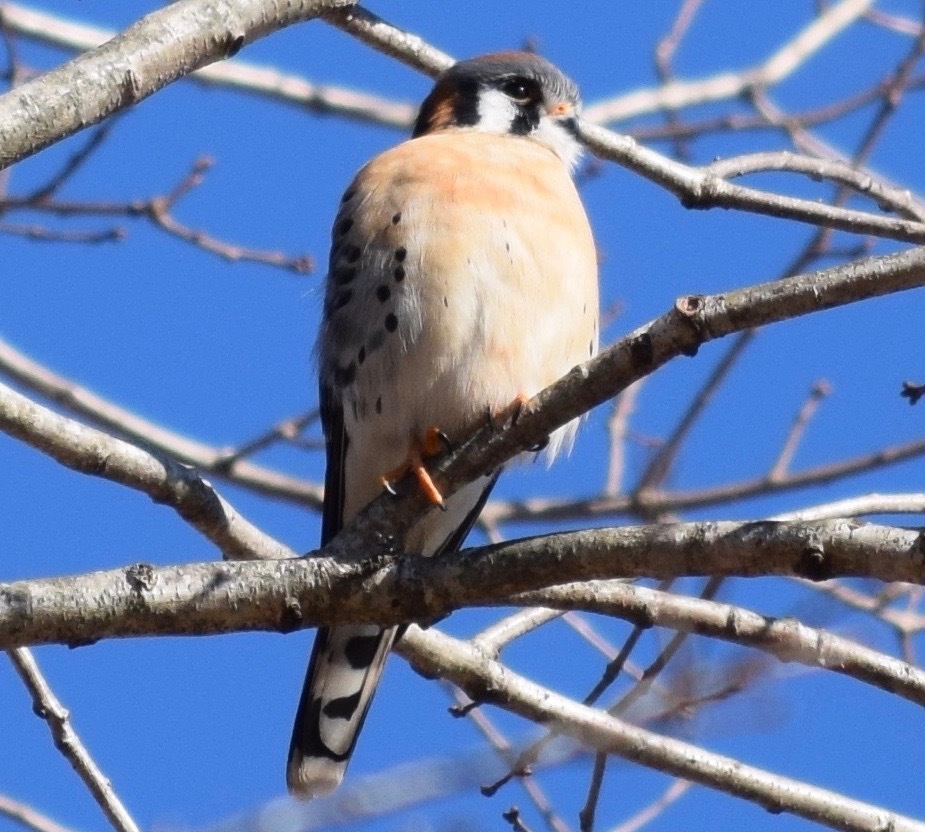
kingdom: Animalia
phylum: Chordata
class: Aves
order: Falconiformes
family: Falconidae
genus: Falco
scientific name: Falco sparverius
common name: American kestrel
